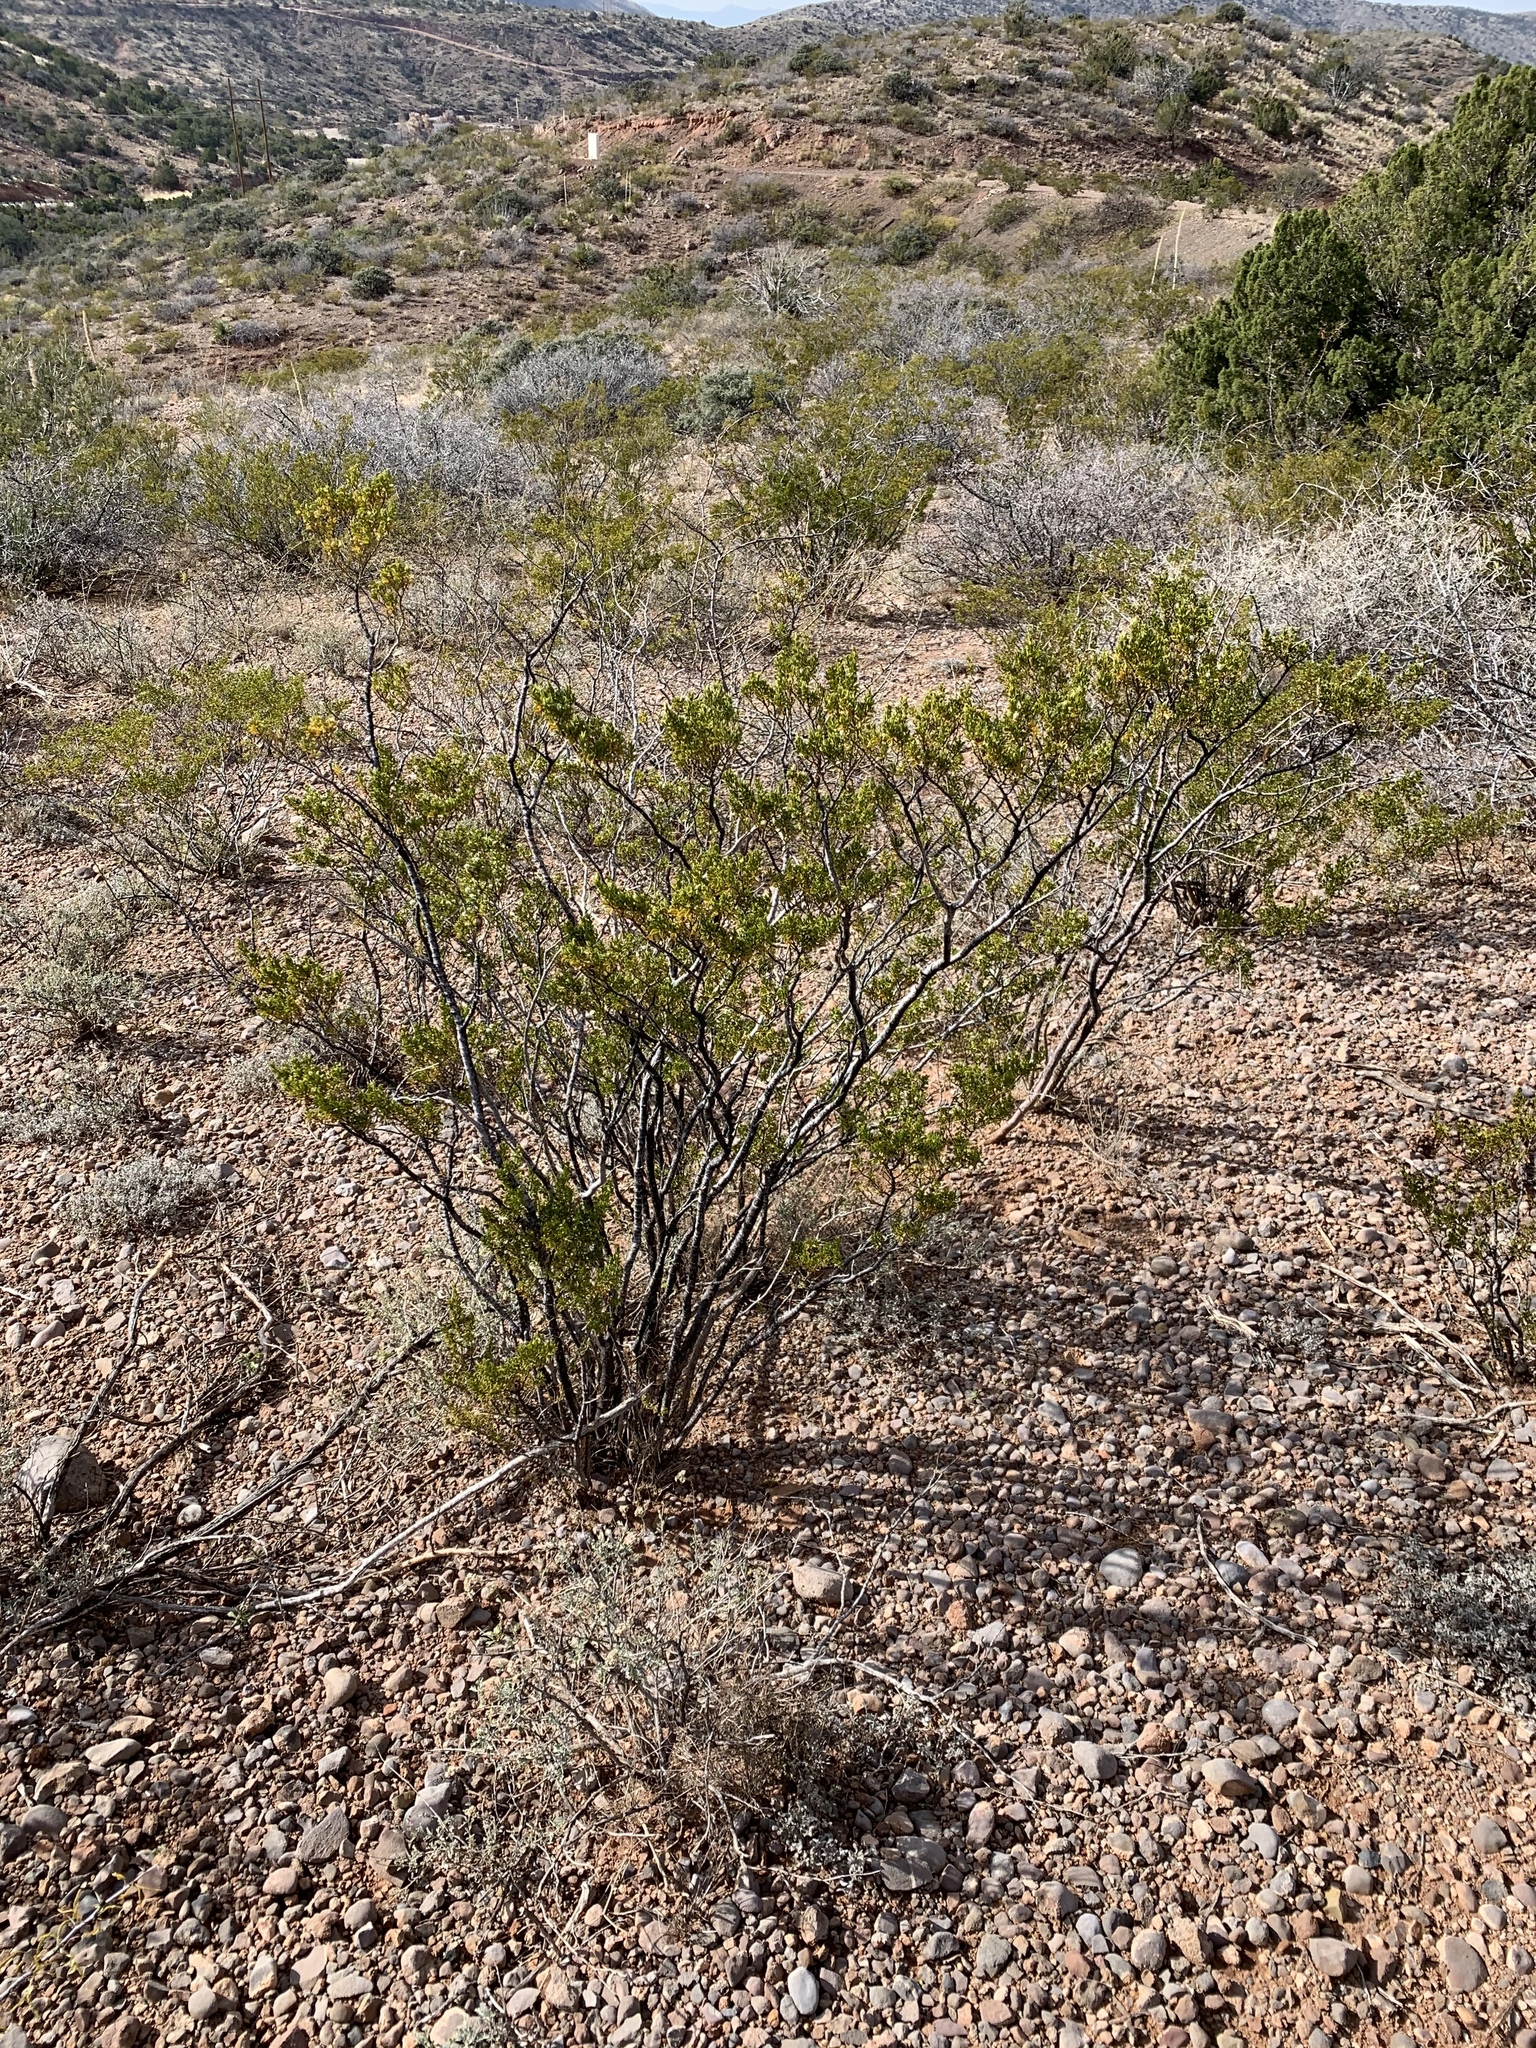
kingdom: Plantae
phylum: Tracheophyta
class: Magnoliopsida
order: Zygophyllales
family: Zygophyllaceae
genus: Larrea
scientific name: Larrea tridentata
